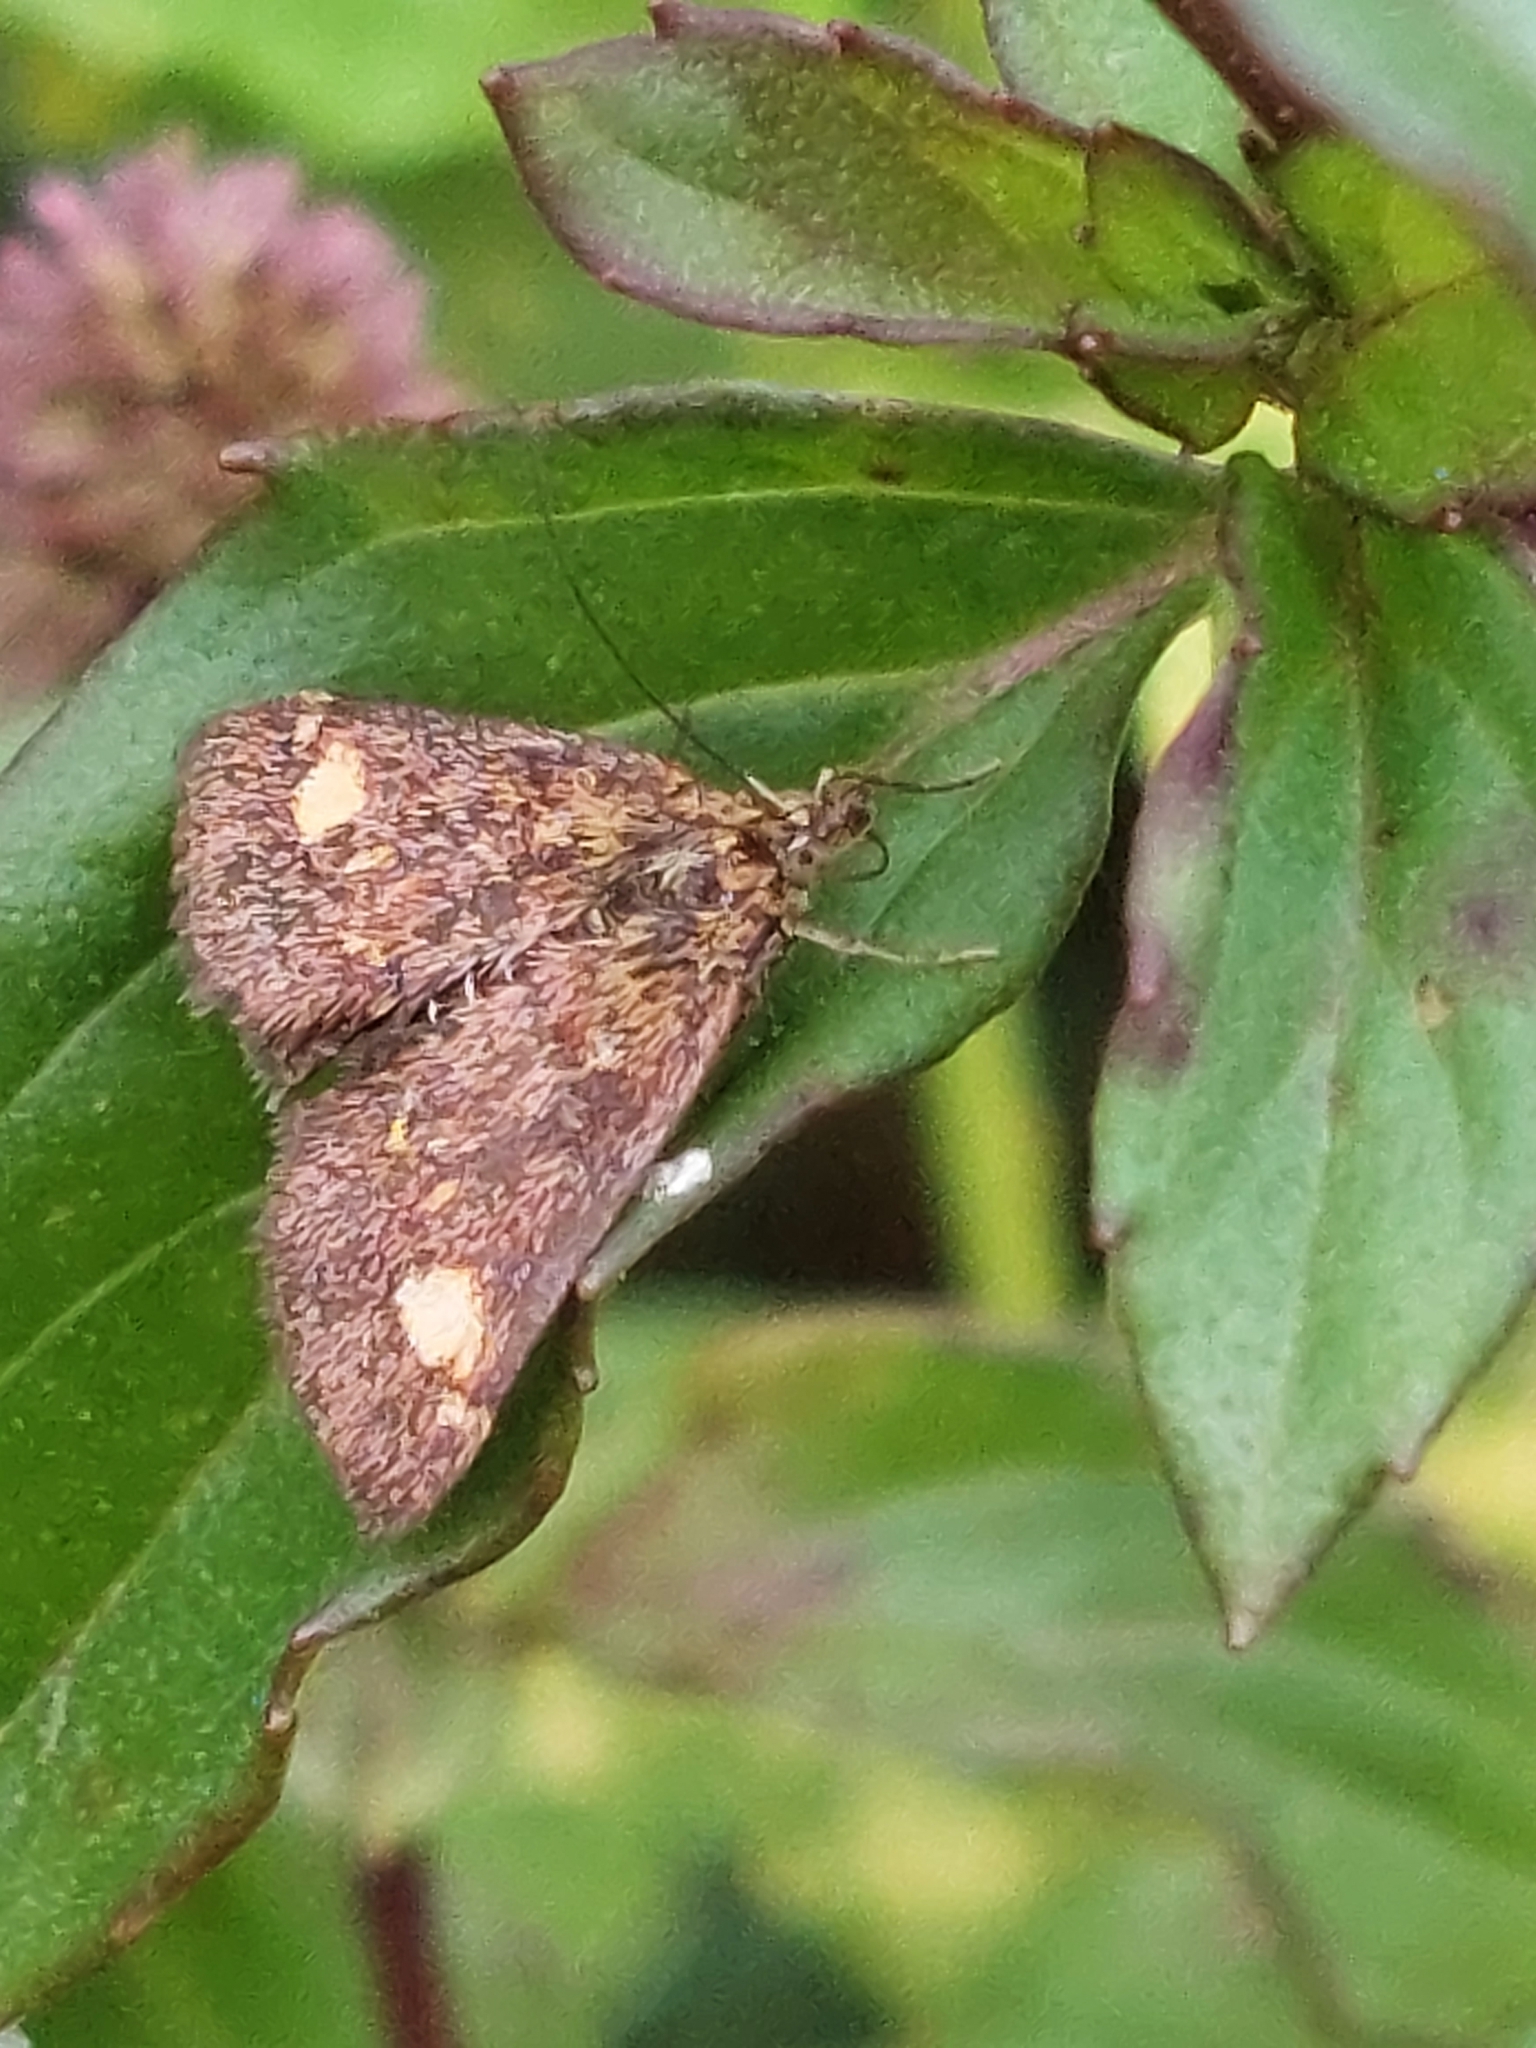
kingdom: Animalia
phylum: Arthropoda
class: Insecta
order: Lepidoptera
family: Crambidae
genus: Pyrausta
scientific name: Pyrausta aurata
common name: Small purple & gold
